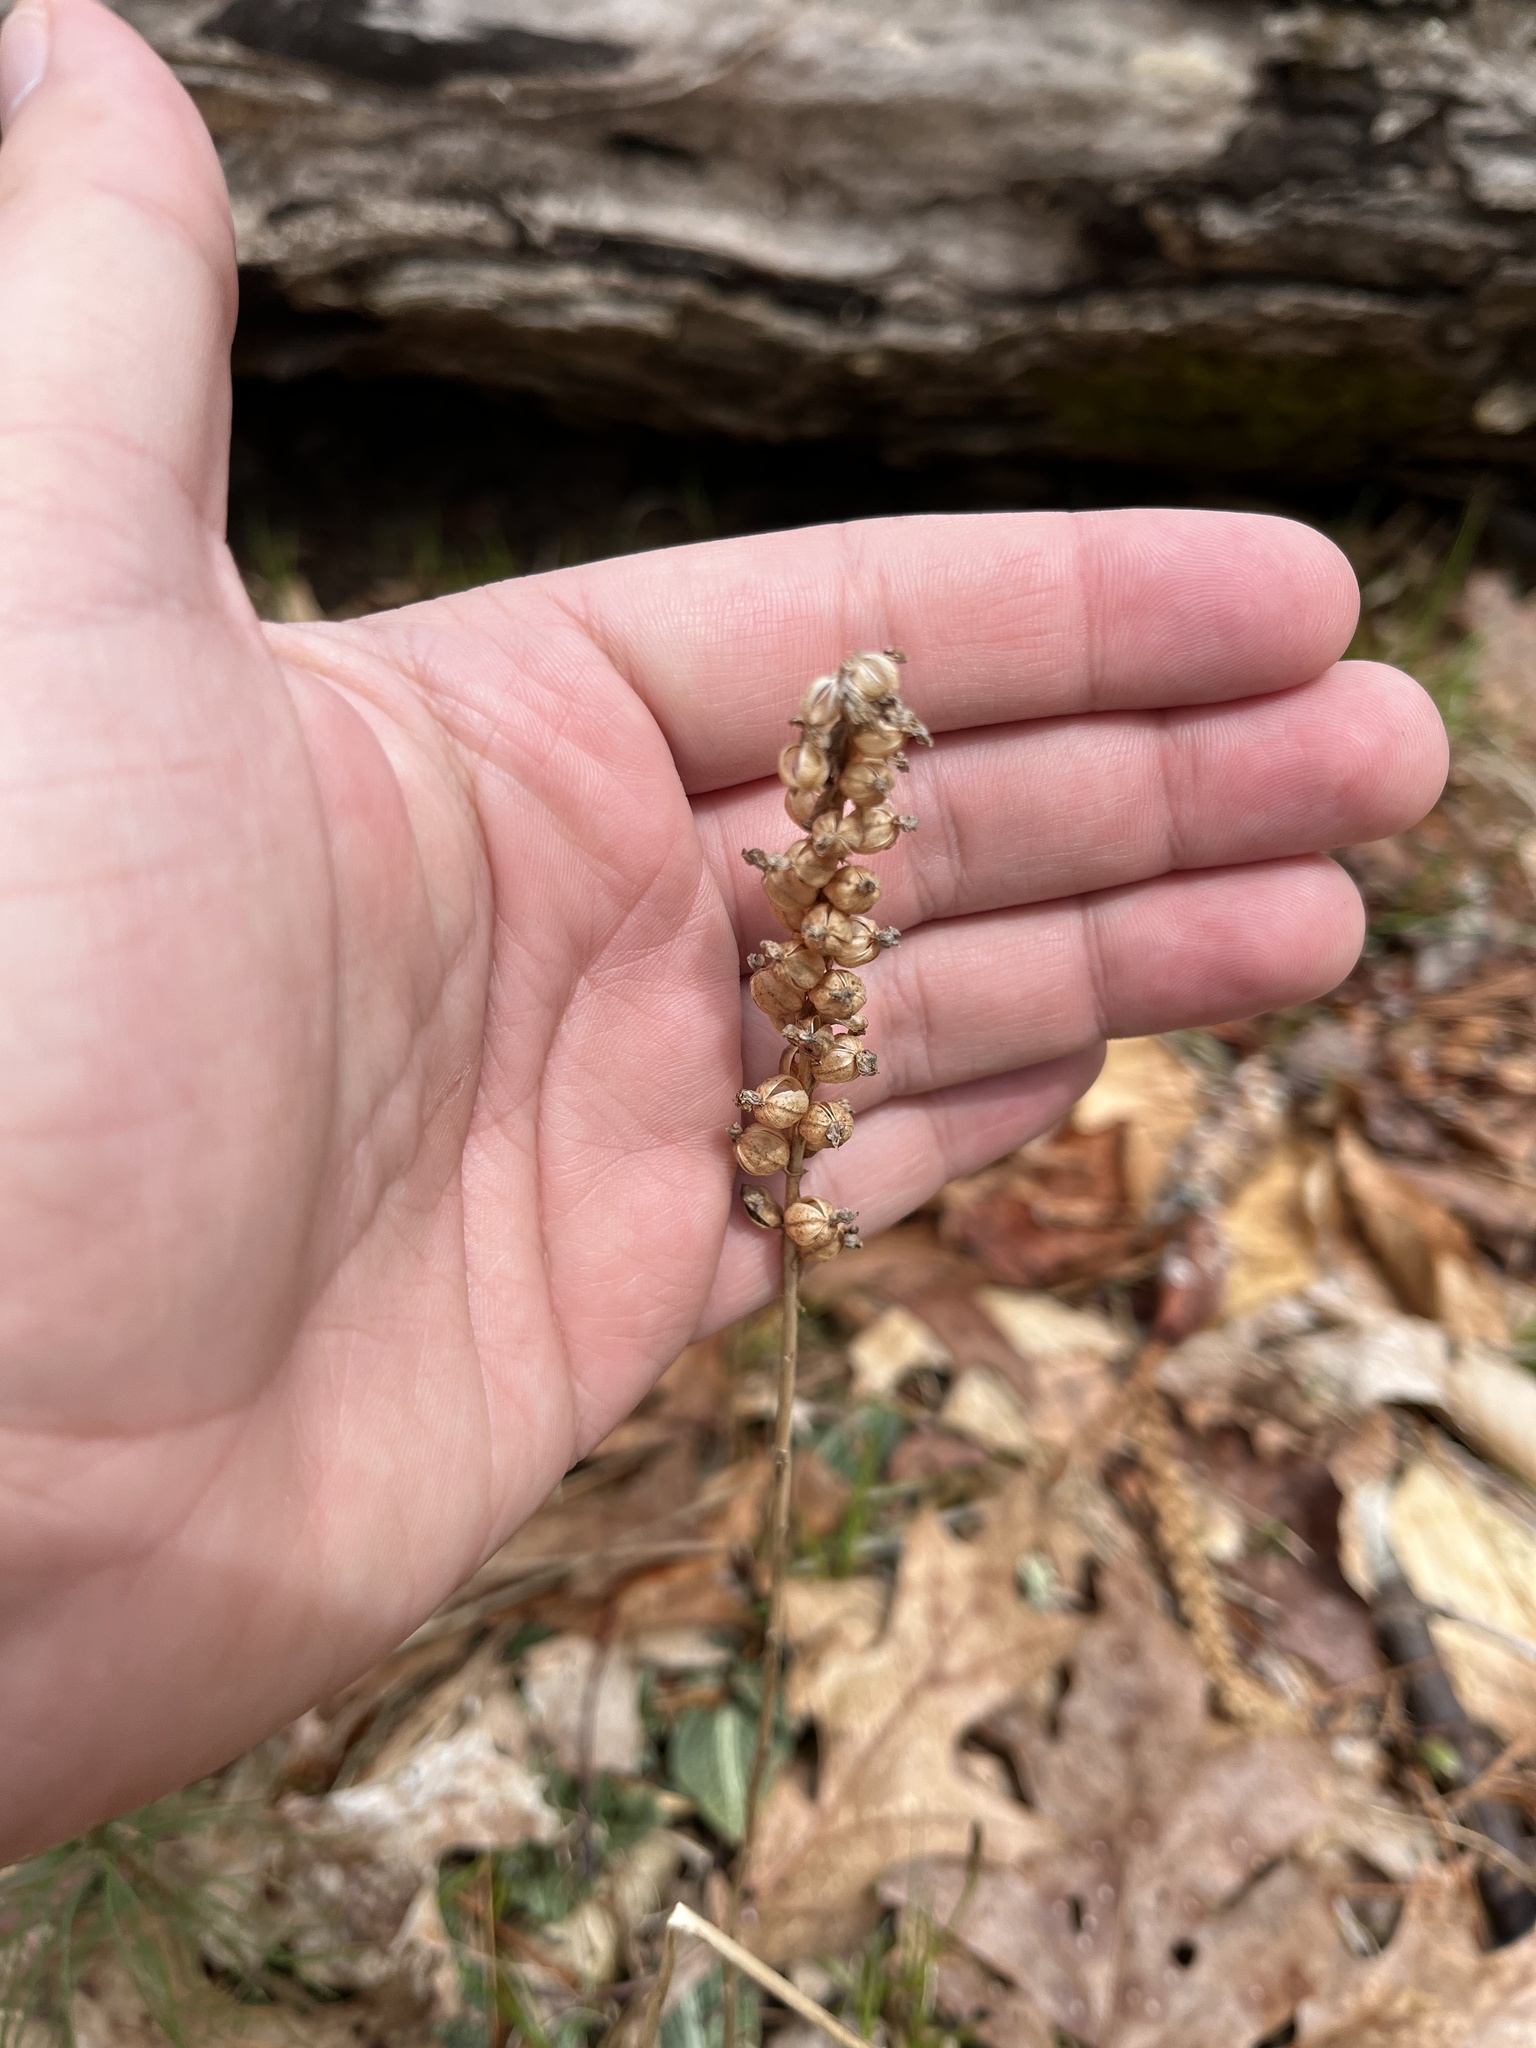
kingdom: Plantae
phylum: Tracheophyta
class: Liliopsida
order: Asparagales
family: Orchidaceae
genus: Goodyera
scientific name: Goodyera pubescens
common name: Downy rattlesnake-plantain
